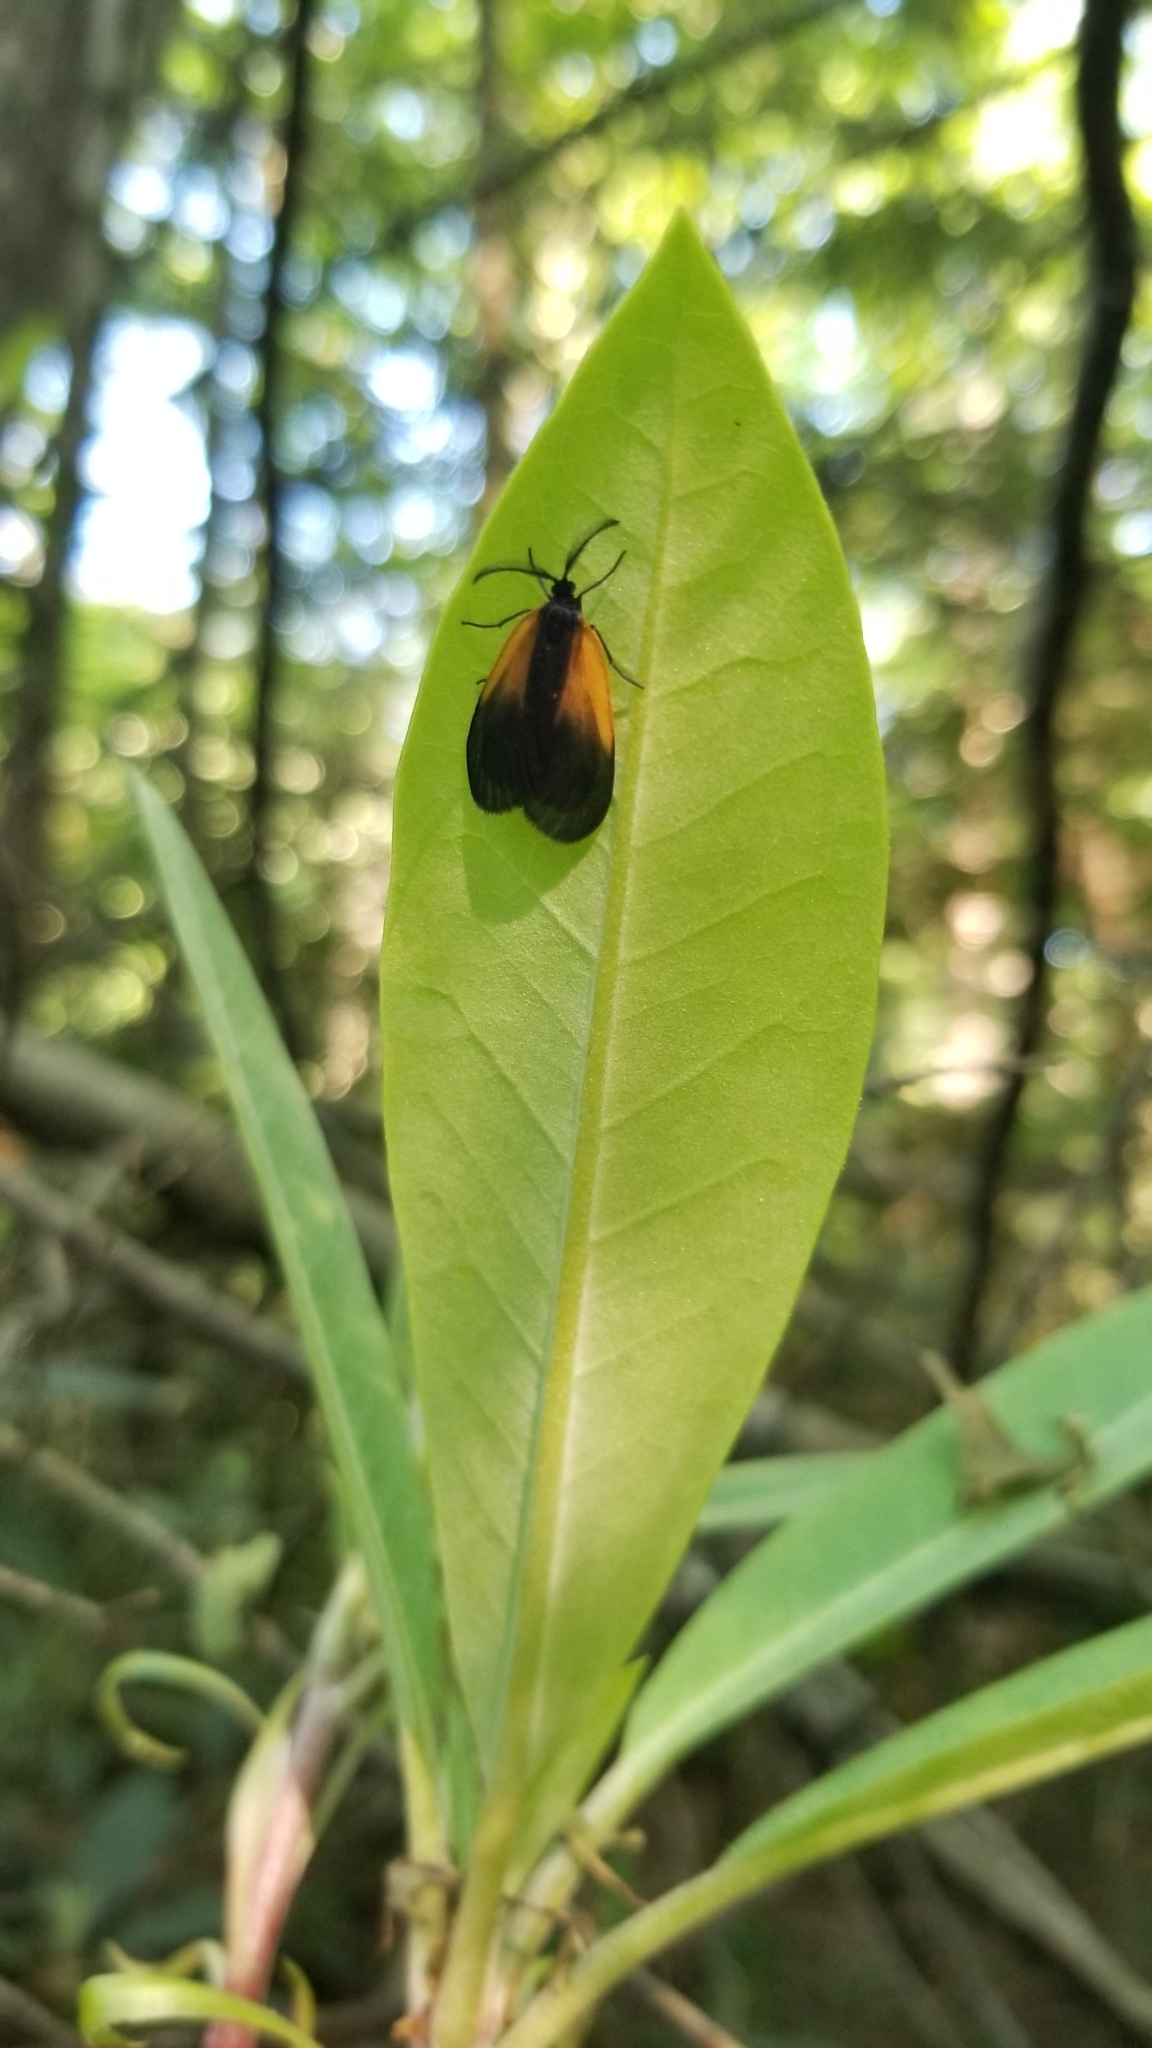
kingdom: Animalia
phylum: Arthropoda
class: Insecta
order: Lepidoptera
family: Zygaenidae
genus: Malthaca
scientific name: Malthaca dimidiata
